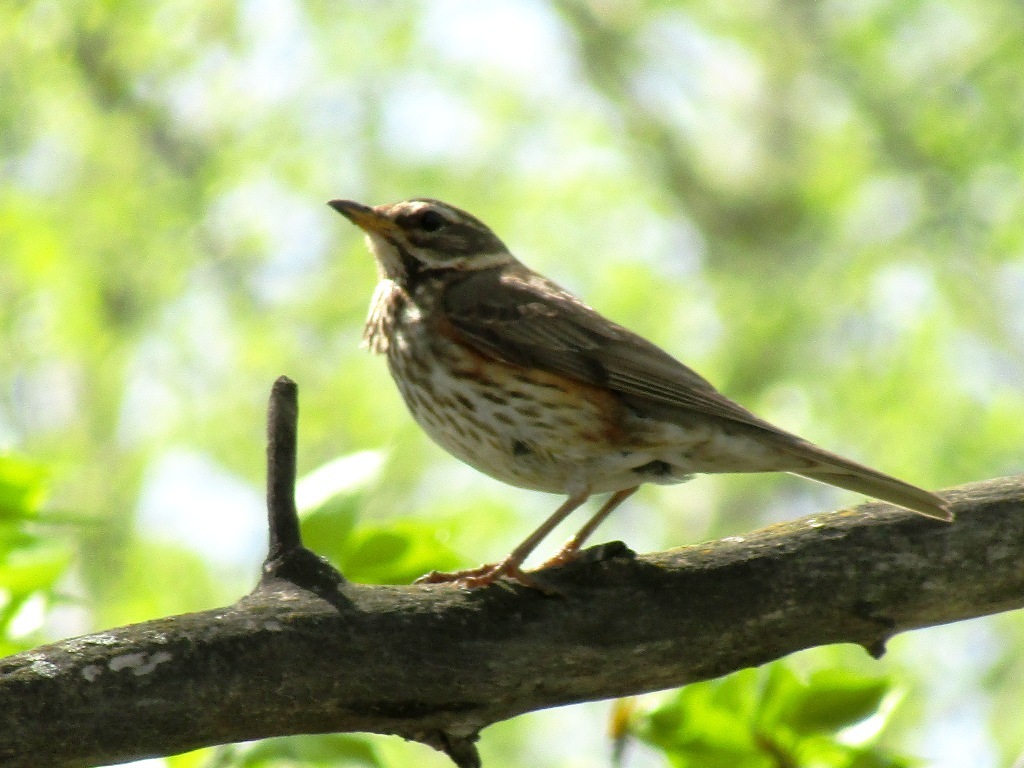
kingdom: Animalia
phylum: Chordata
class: Aves
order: Passeriformes
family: Turdidae
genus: Turdus
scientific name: Turdus iliacus
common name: Redwing
